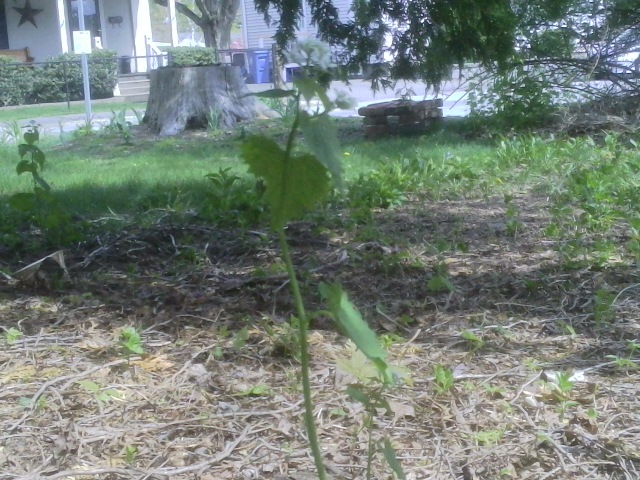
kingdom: Plantae
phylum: Tracheophyta
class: Magnoliopsida
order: Brassicales
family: Brassicaceae
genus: Alliaria
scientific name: Alliaria petiolata
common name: Garlic mustard
